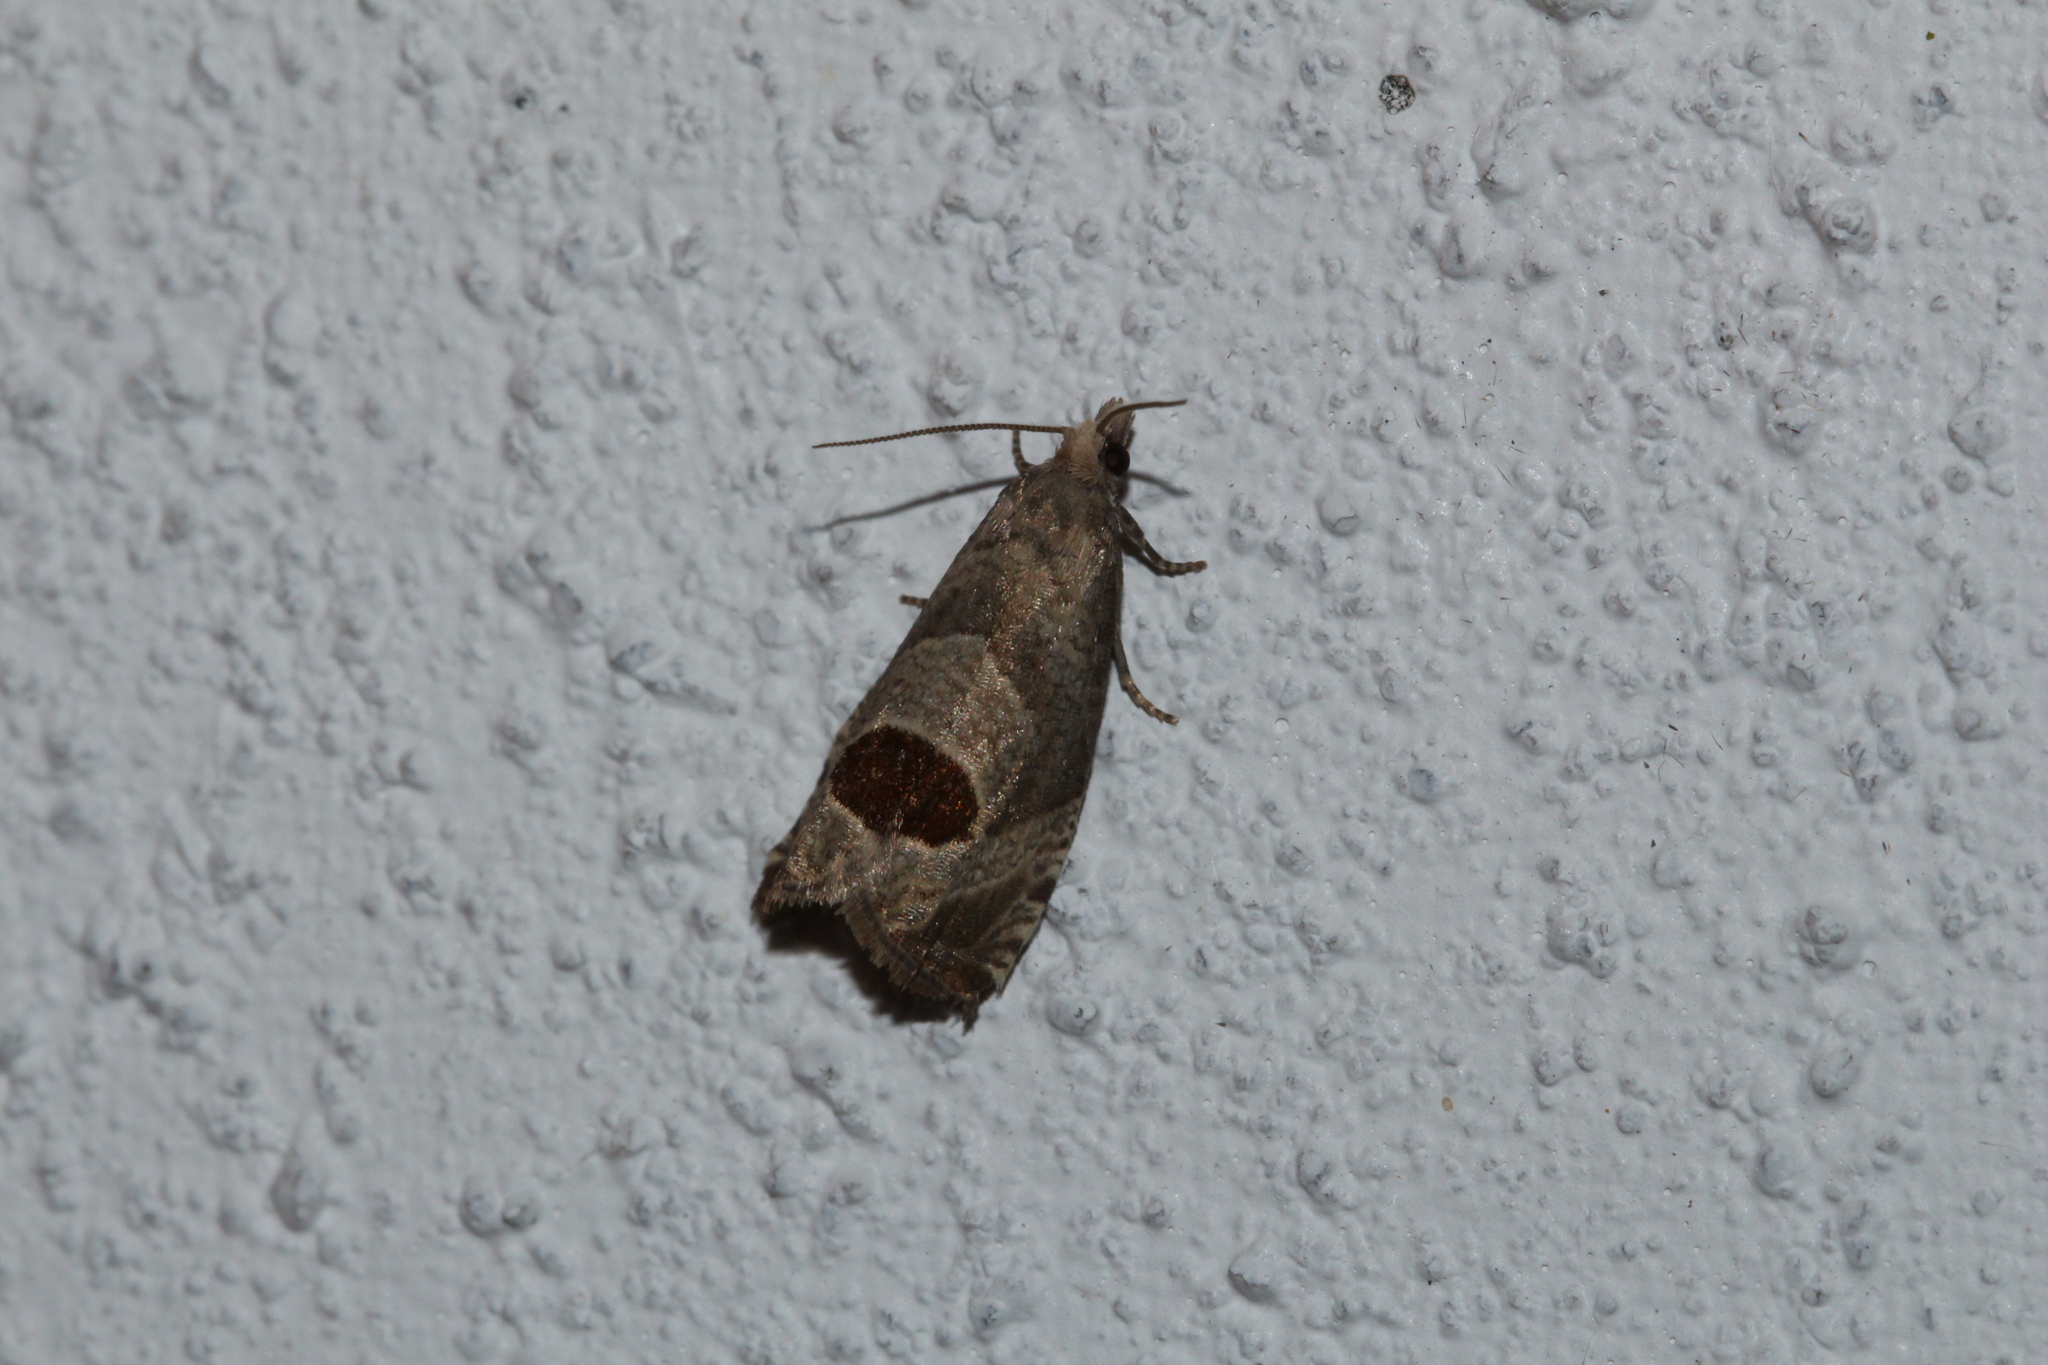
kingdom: Animalia
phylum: Arthropoda
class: Insecta
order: Lepidoptera
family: Tortricidae
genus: Notocelia
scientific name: Notocelia uddmanniana
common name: Bramble shoot moth
